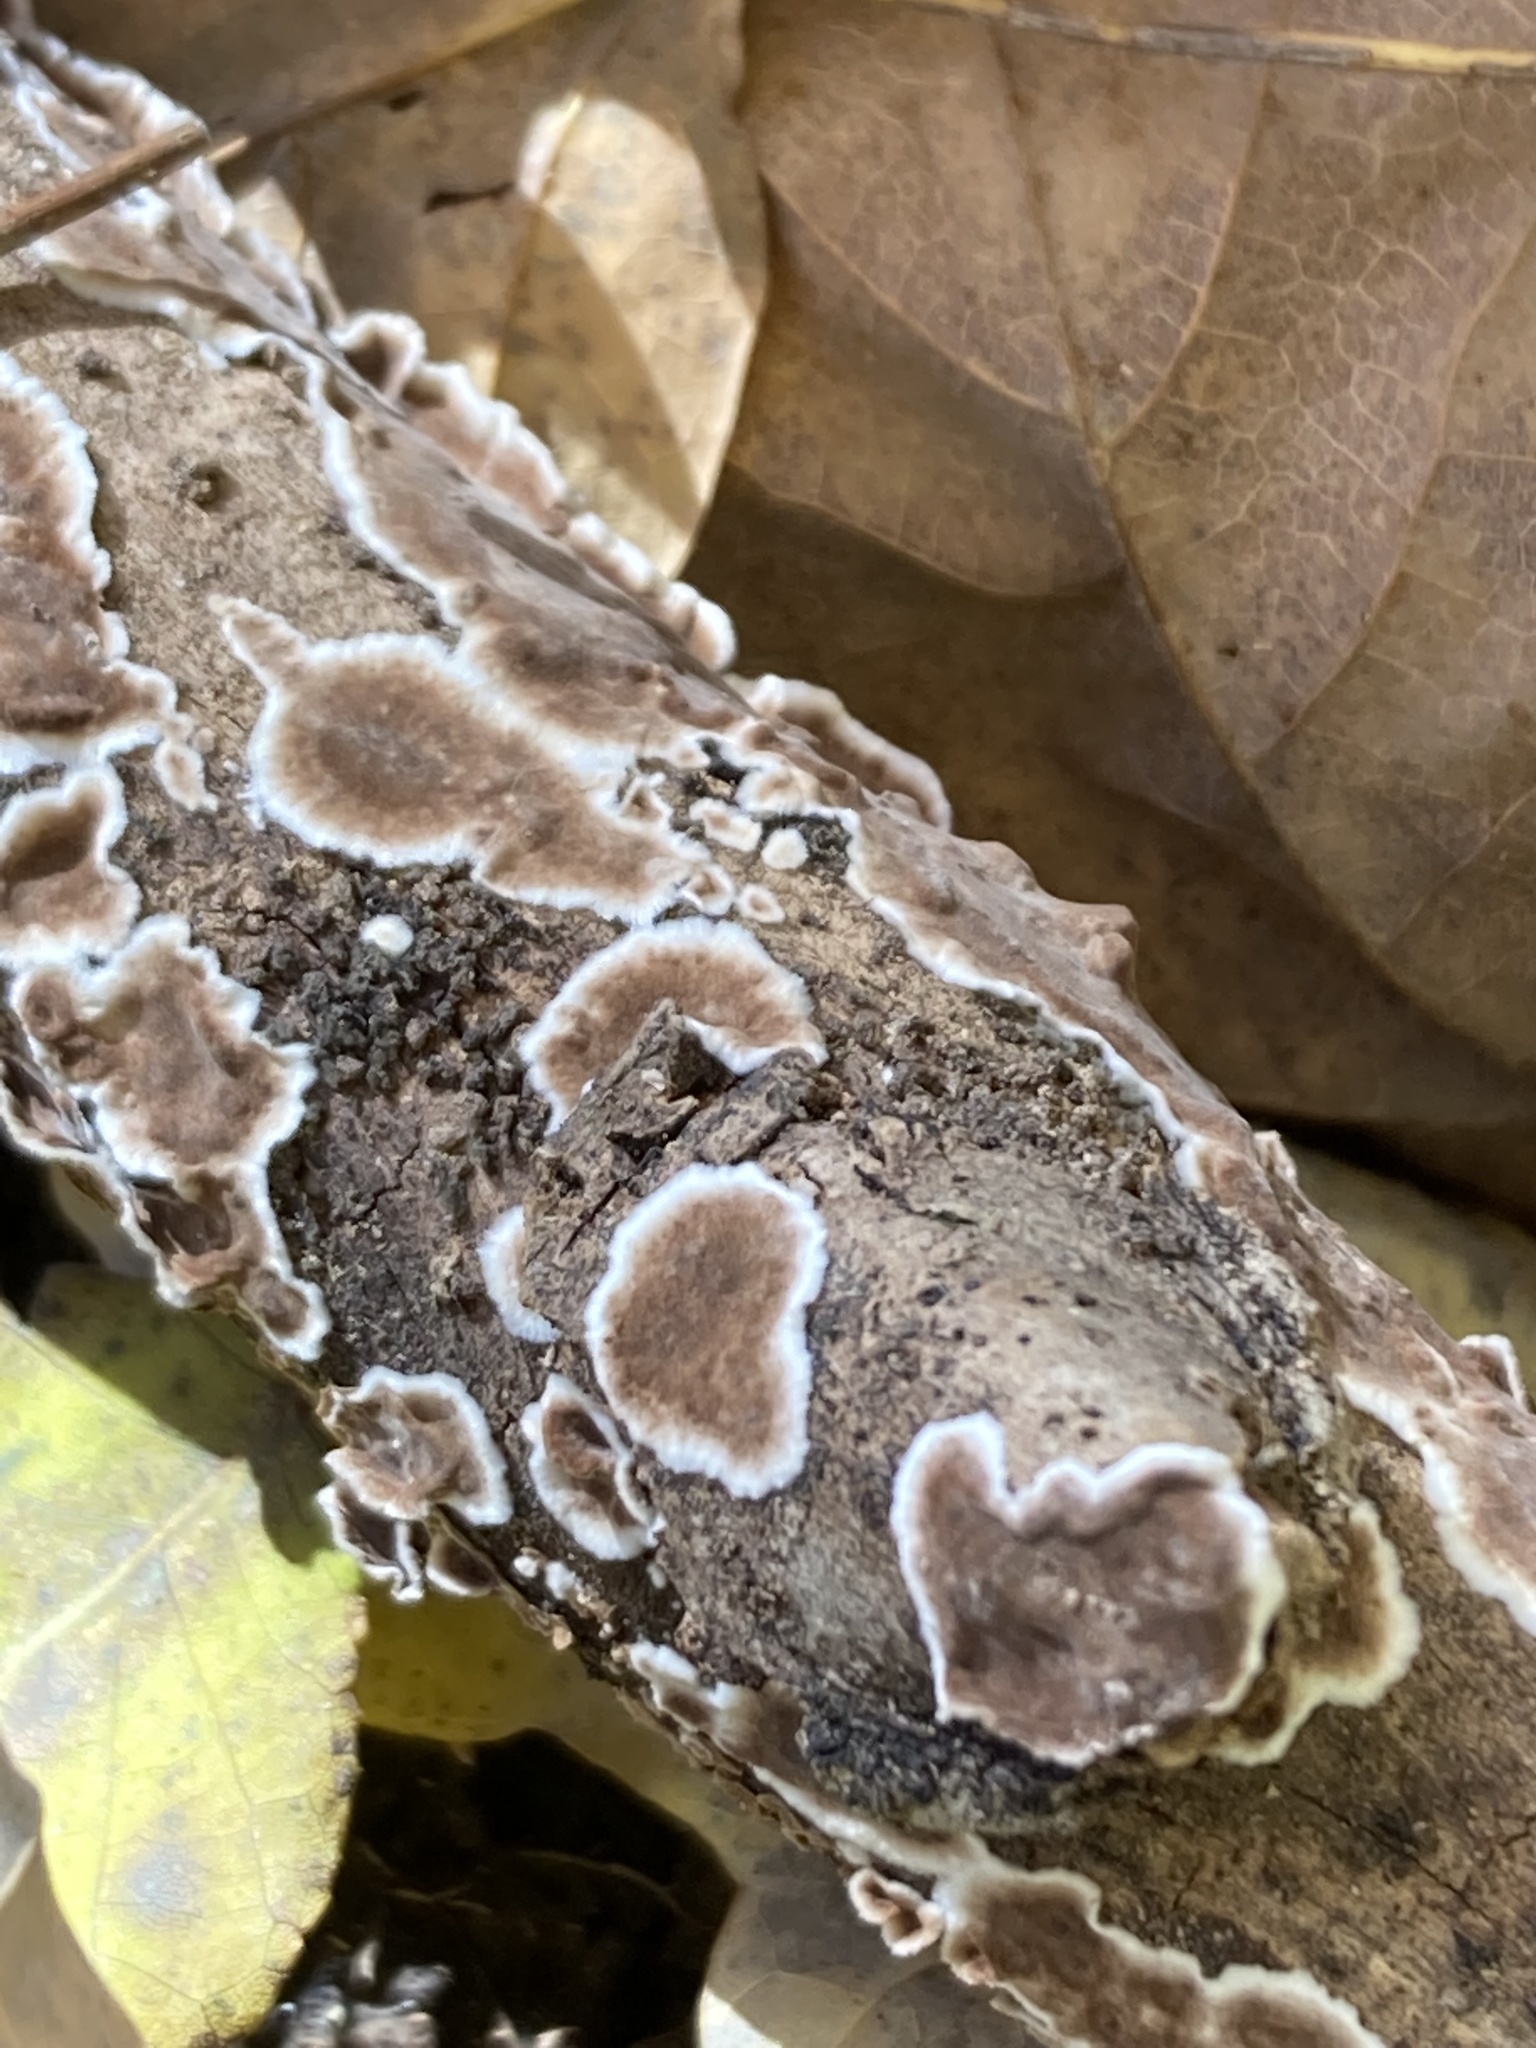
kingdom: Fungi
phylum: Basidiomycota
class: Agaricomycetes
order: Russulales
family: Peniophoraceae
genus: Peniophora
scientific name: Peniophora albobadia
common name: Giraffe spots
